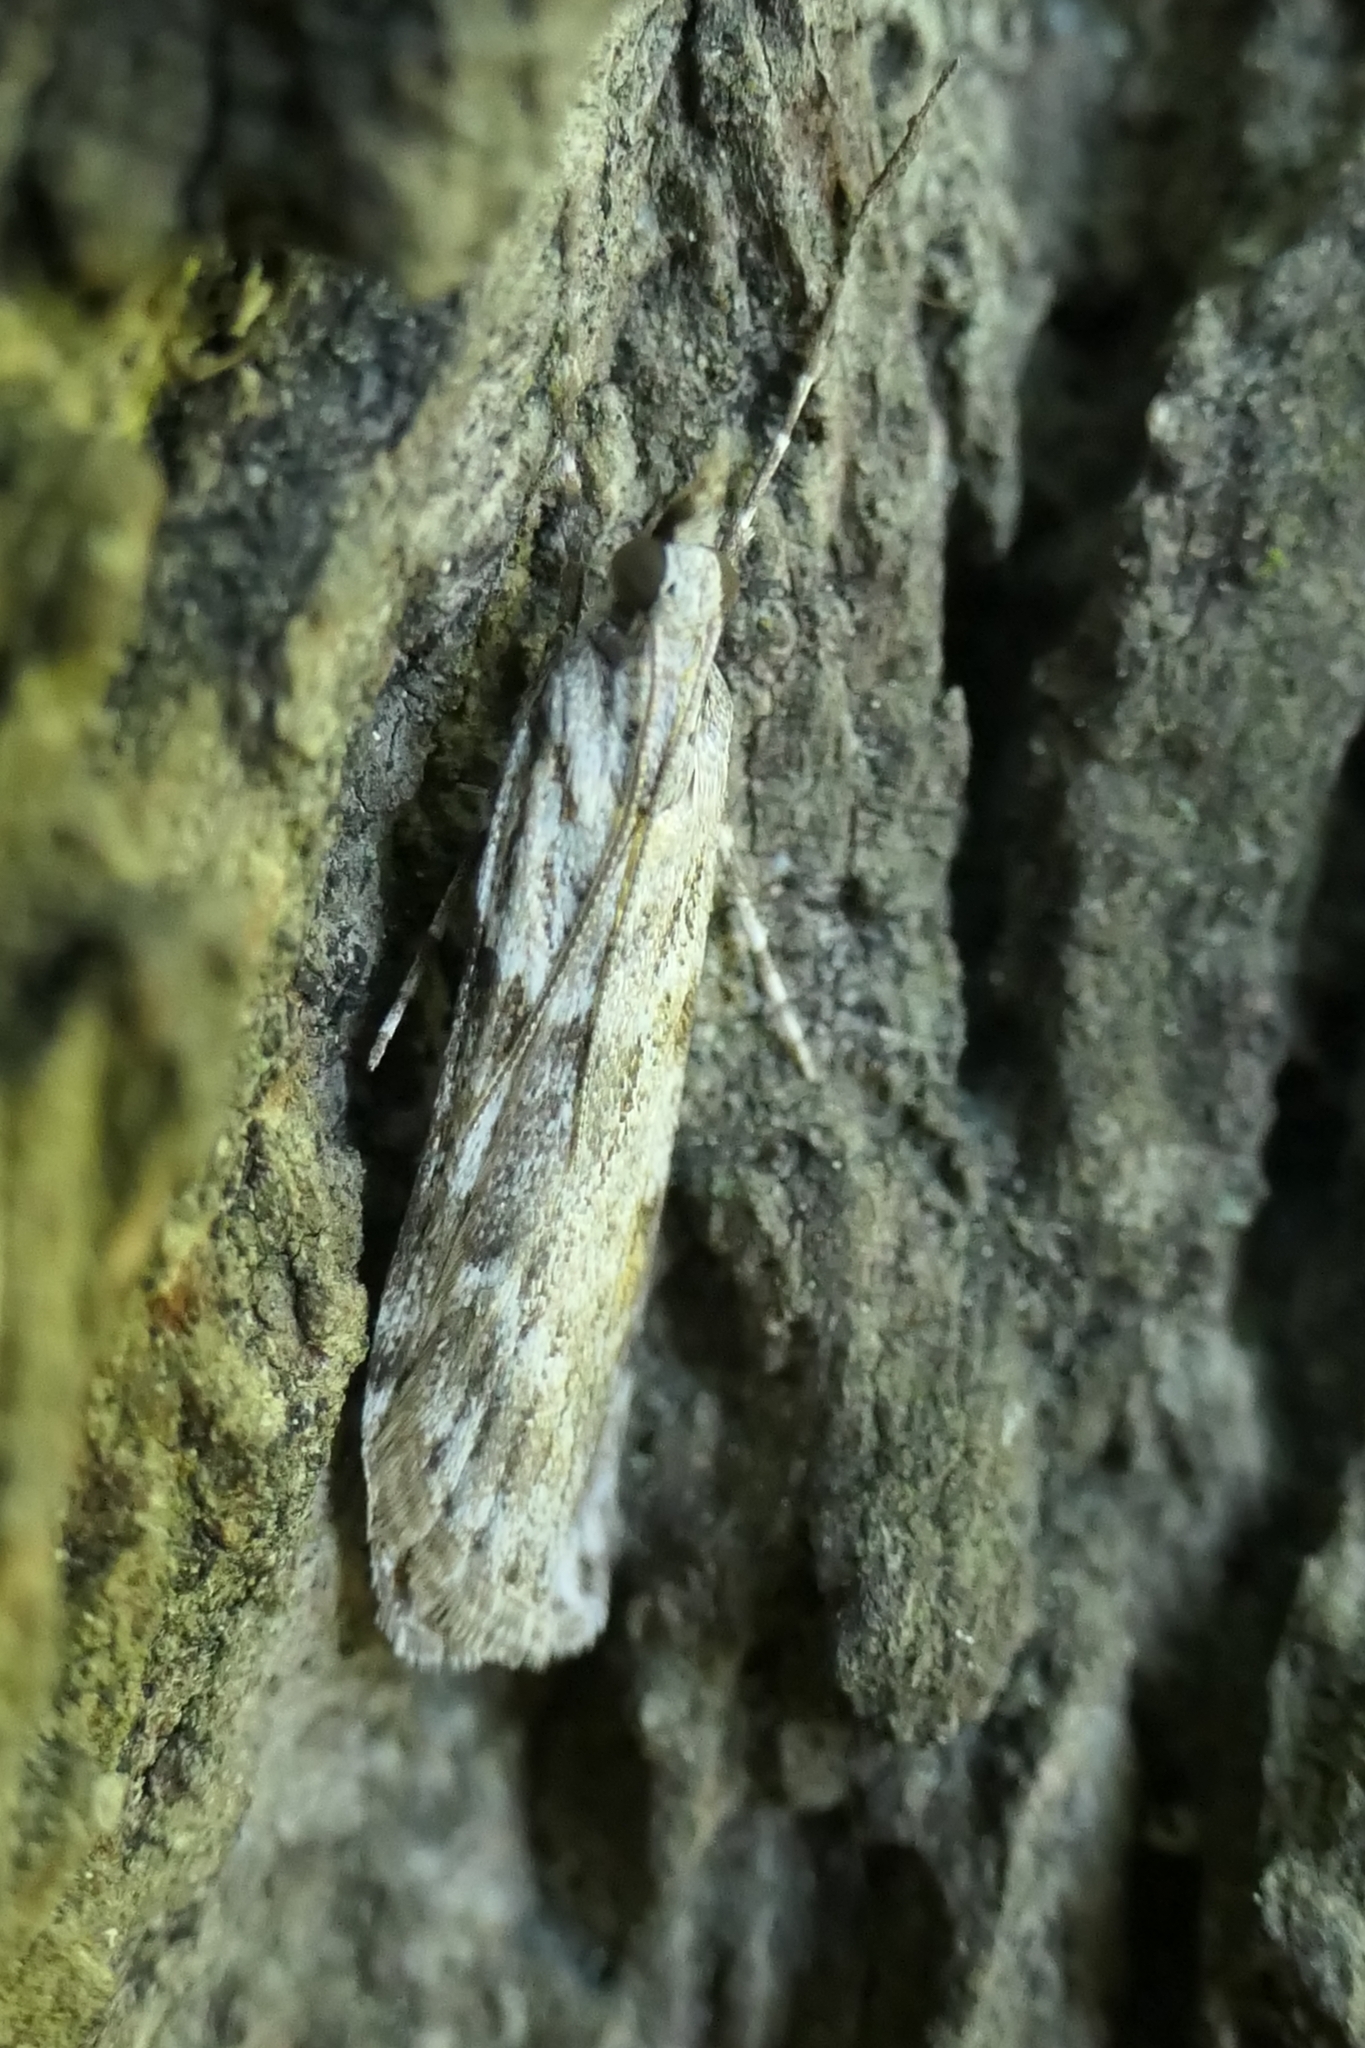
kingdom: Animalia
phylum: Arthropoda
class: Insecta
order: Lepidoptera
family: Crambidae
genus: Scoparia
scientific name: Scoparia halopis
